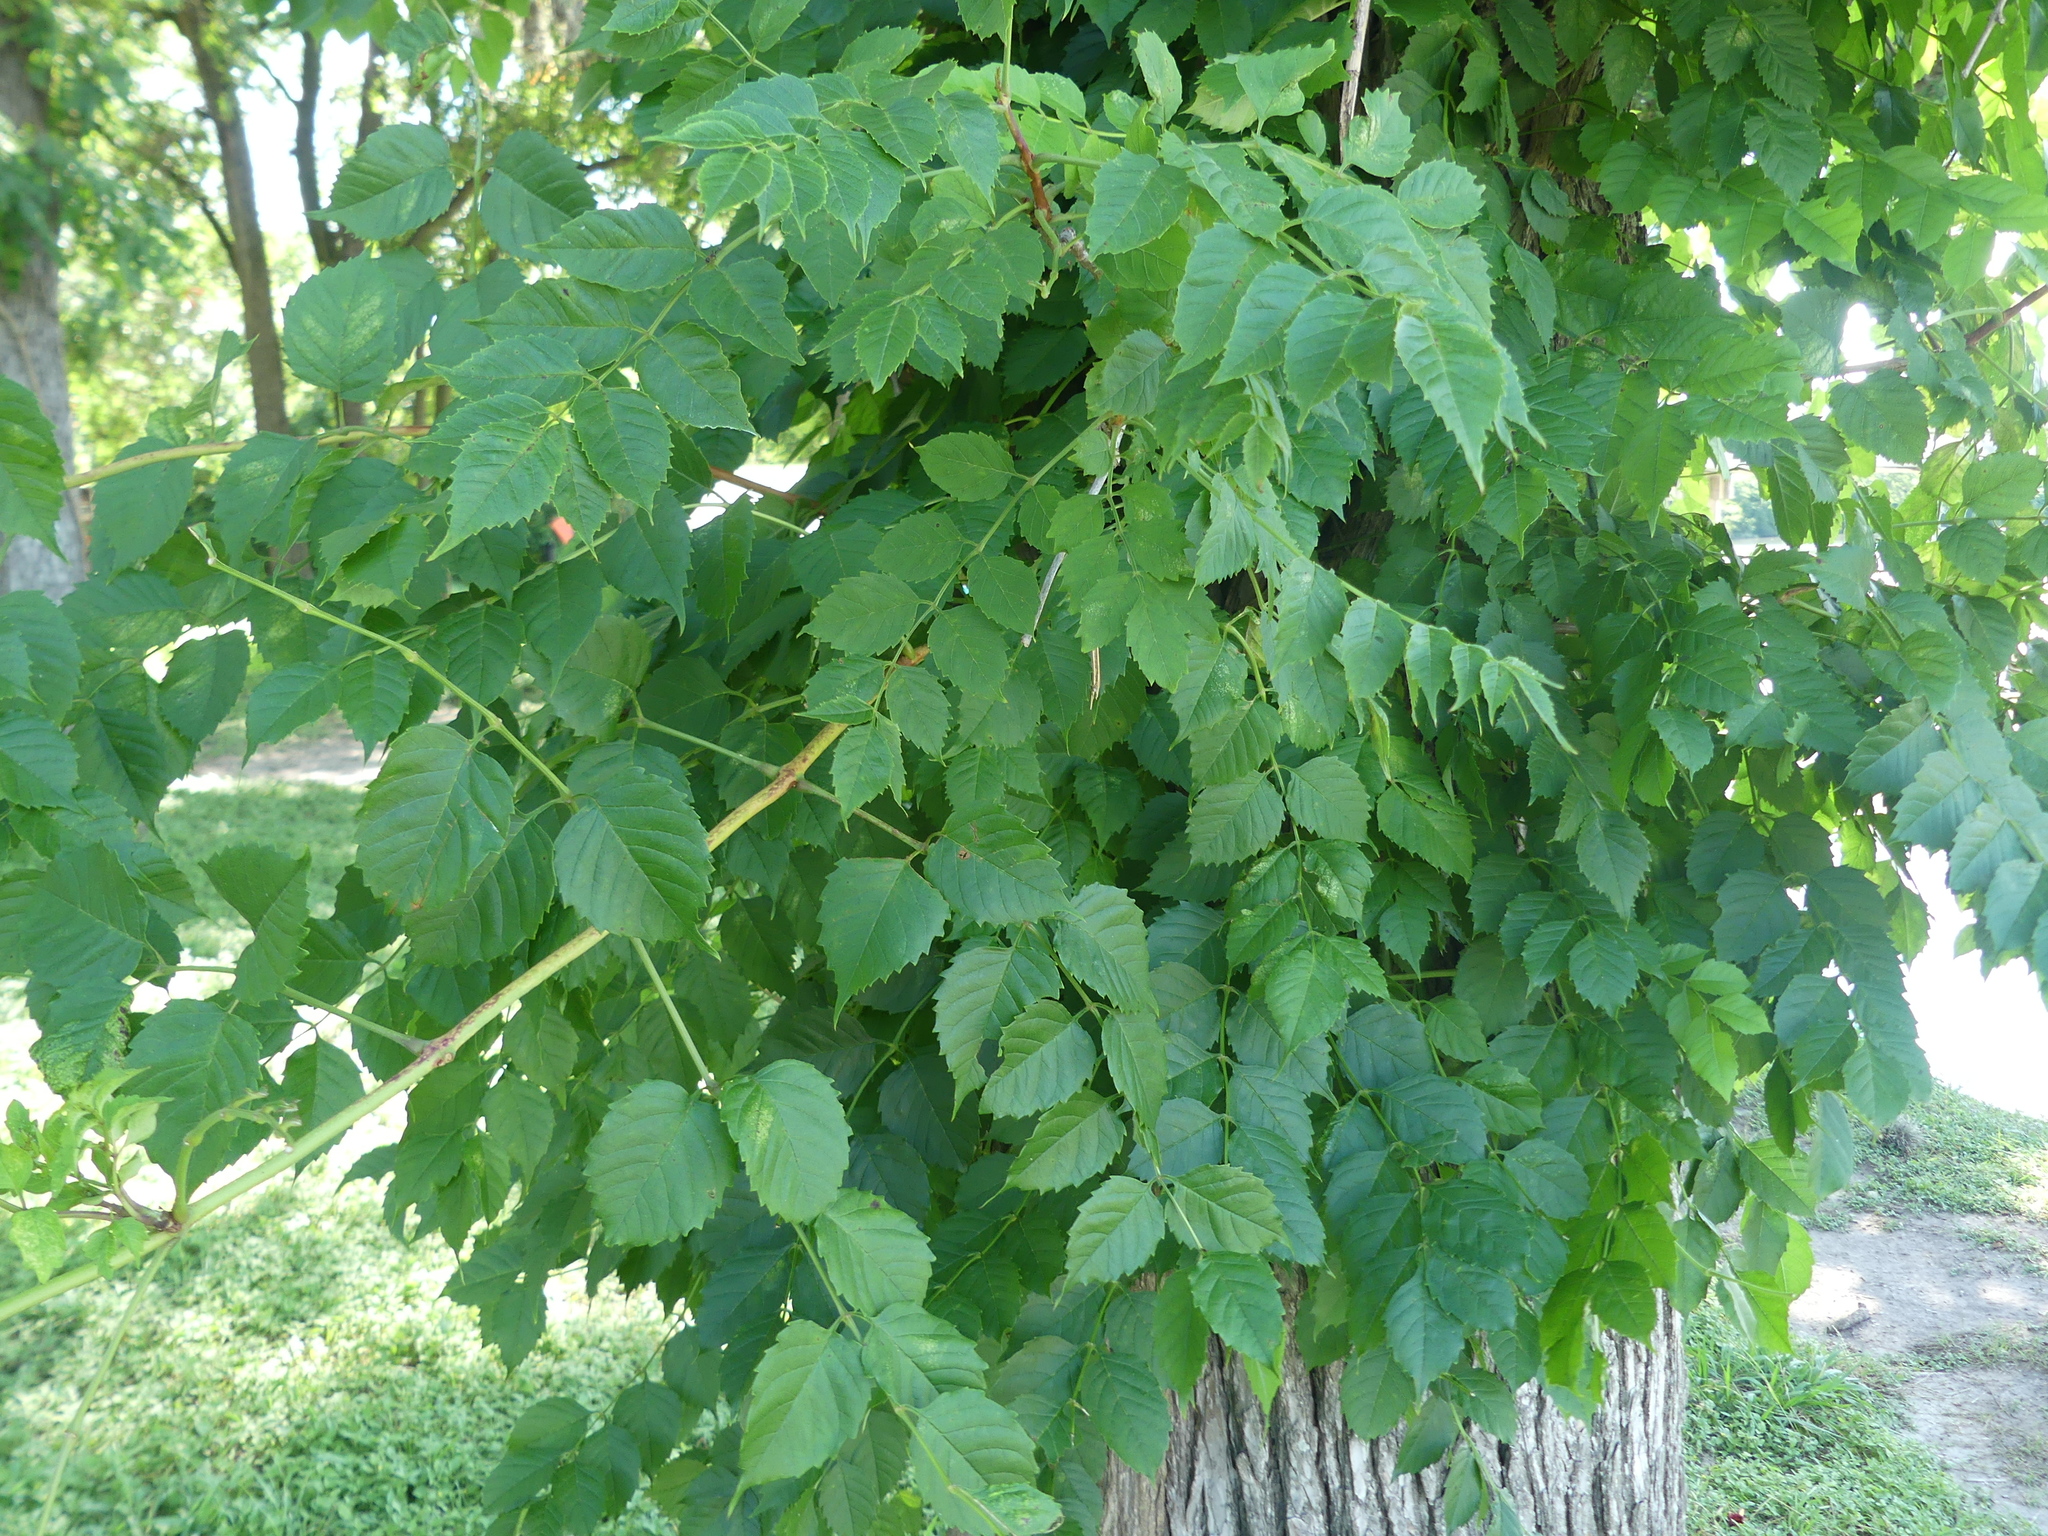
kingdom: Plantae
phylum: Tracheophyta
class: Magnoliopsida
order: Lamiales
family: Bignoniaceae
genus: Campsis
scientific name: Campsis radicans
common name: Trumpet-creeper
